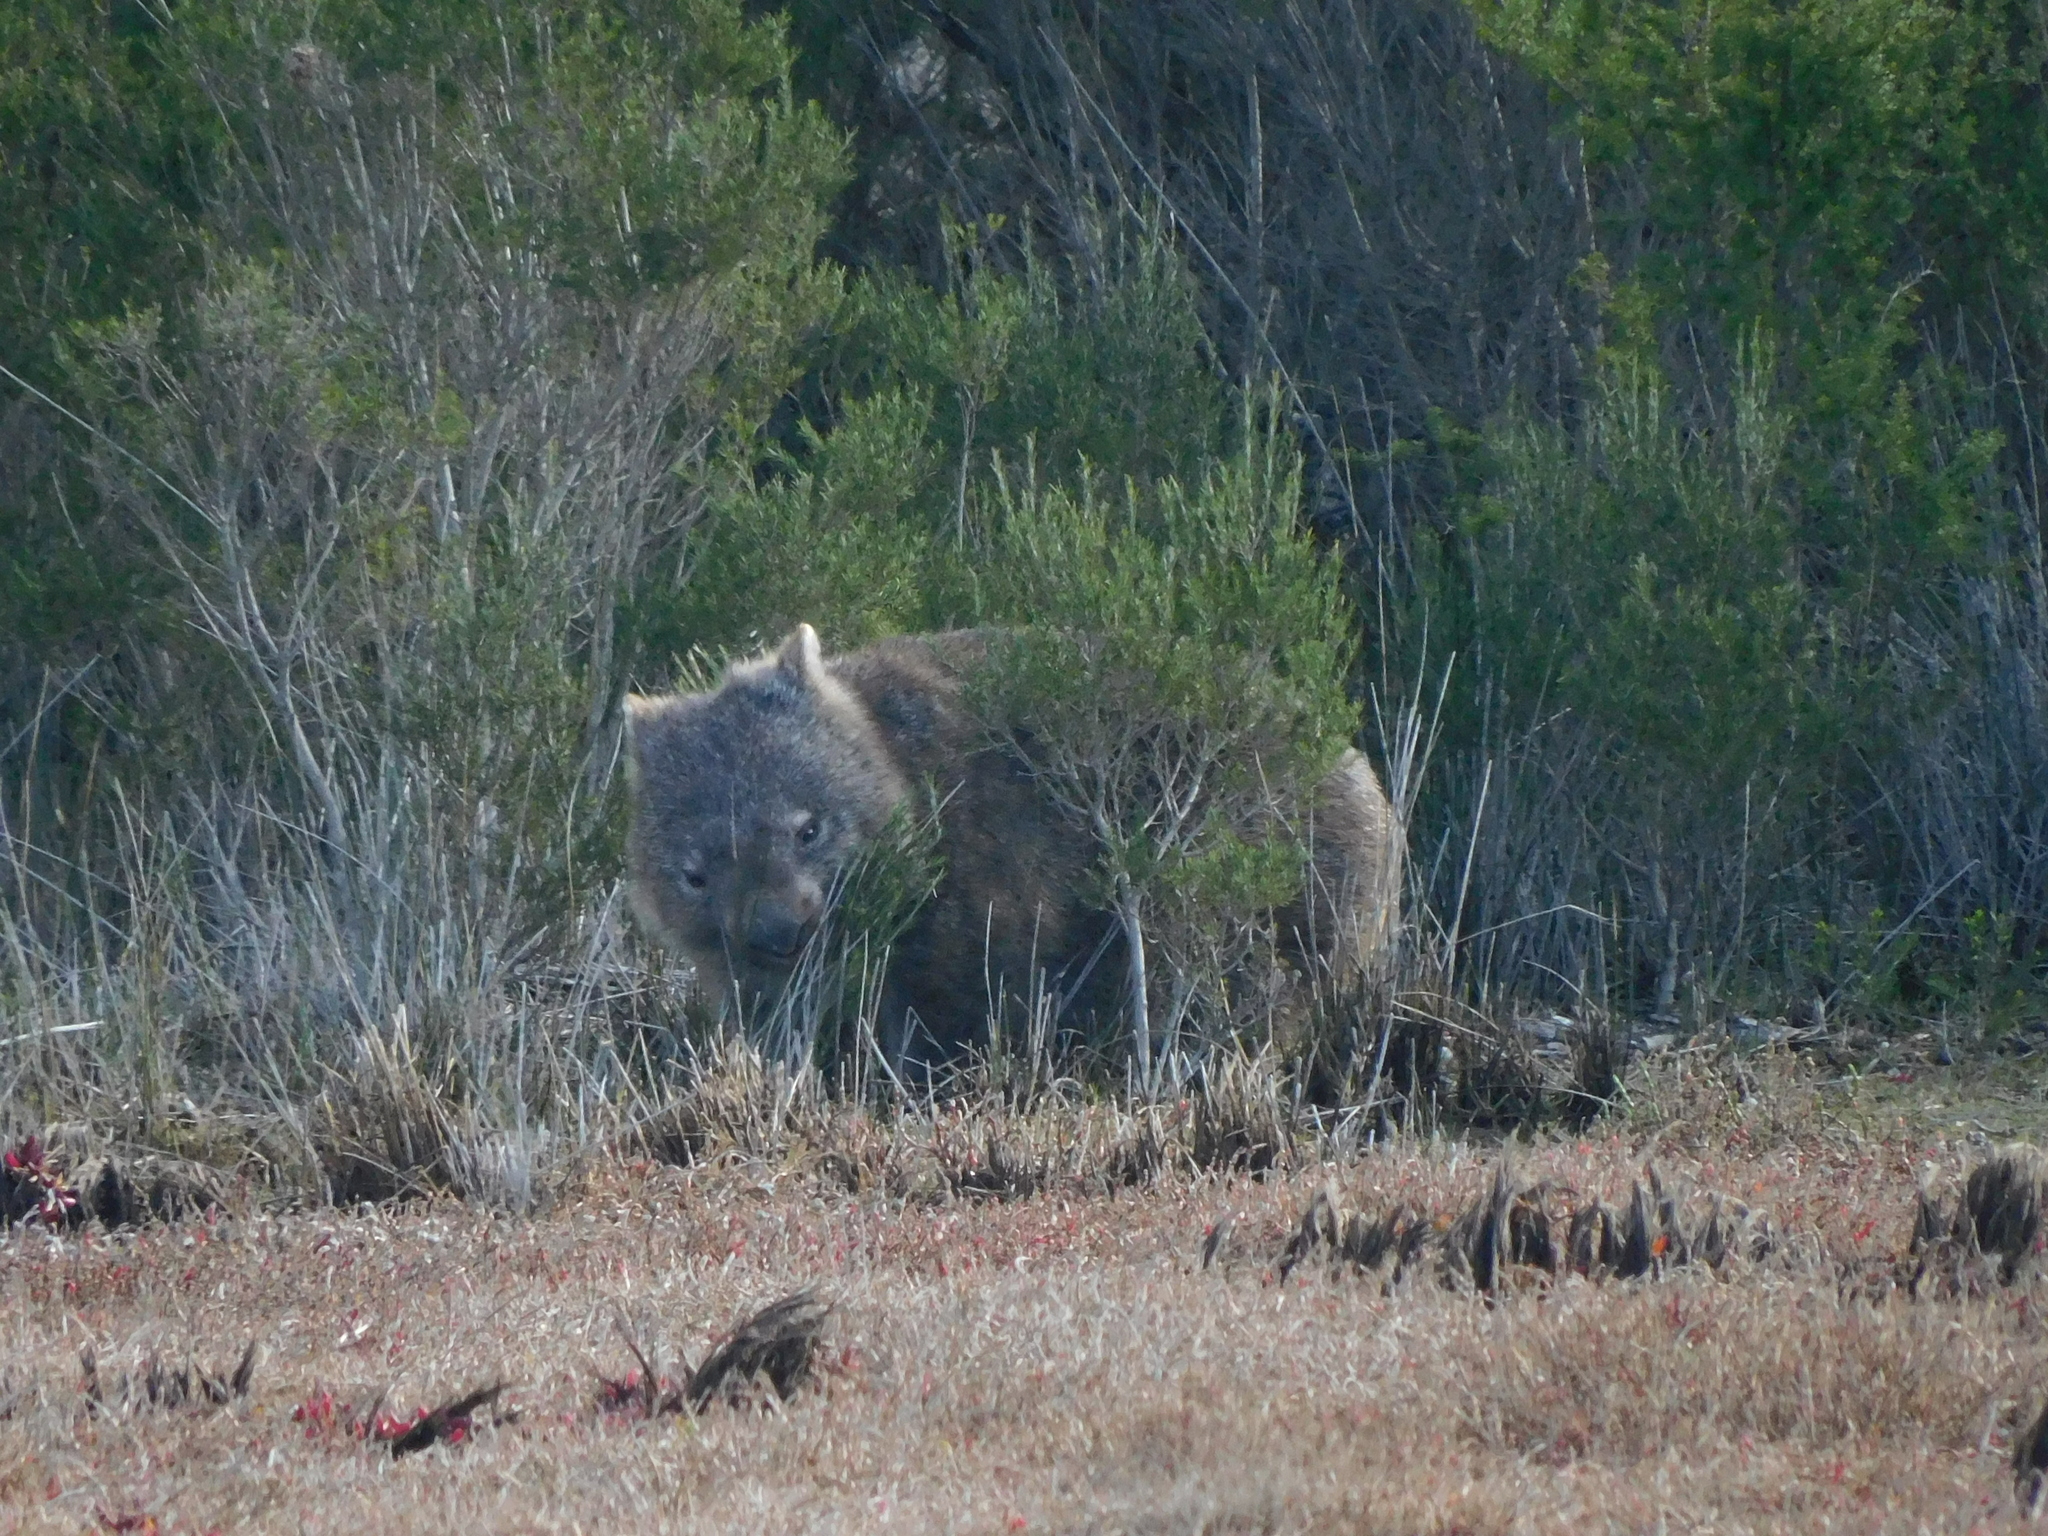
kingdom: Animalia
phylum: Chordata
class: Mammalia
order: Diprotodontia
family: Vombatidae
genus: Vombatus
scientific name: Vombatus ursinus
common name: Common wombat
